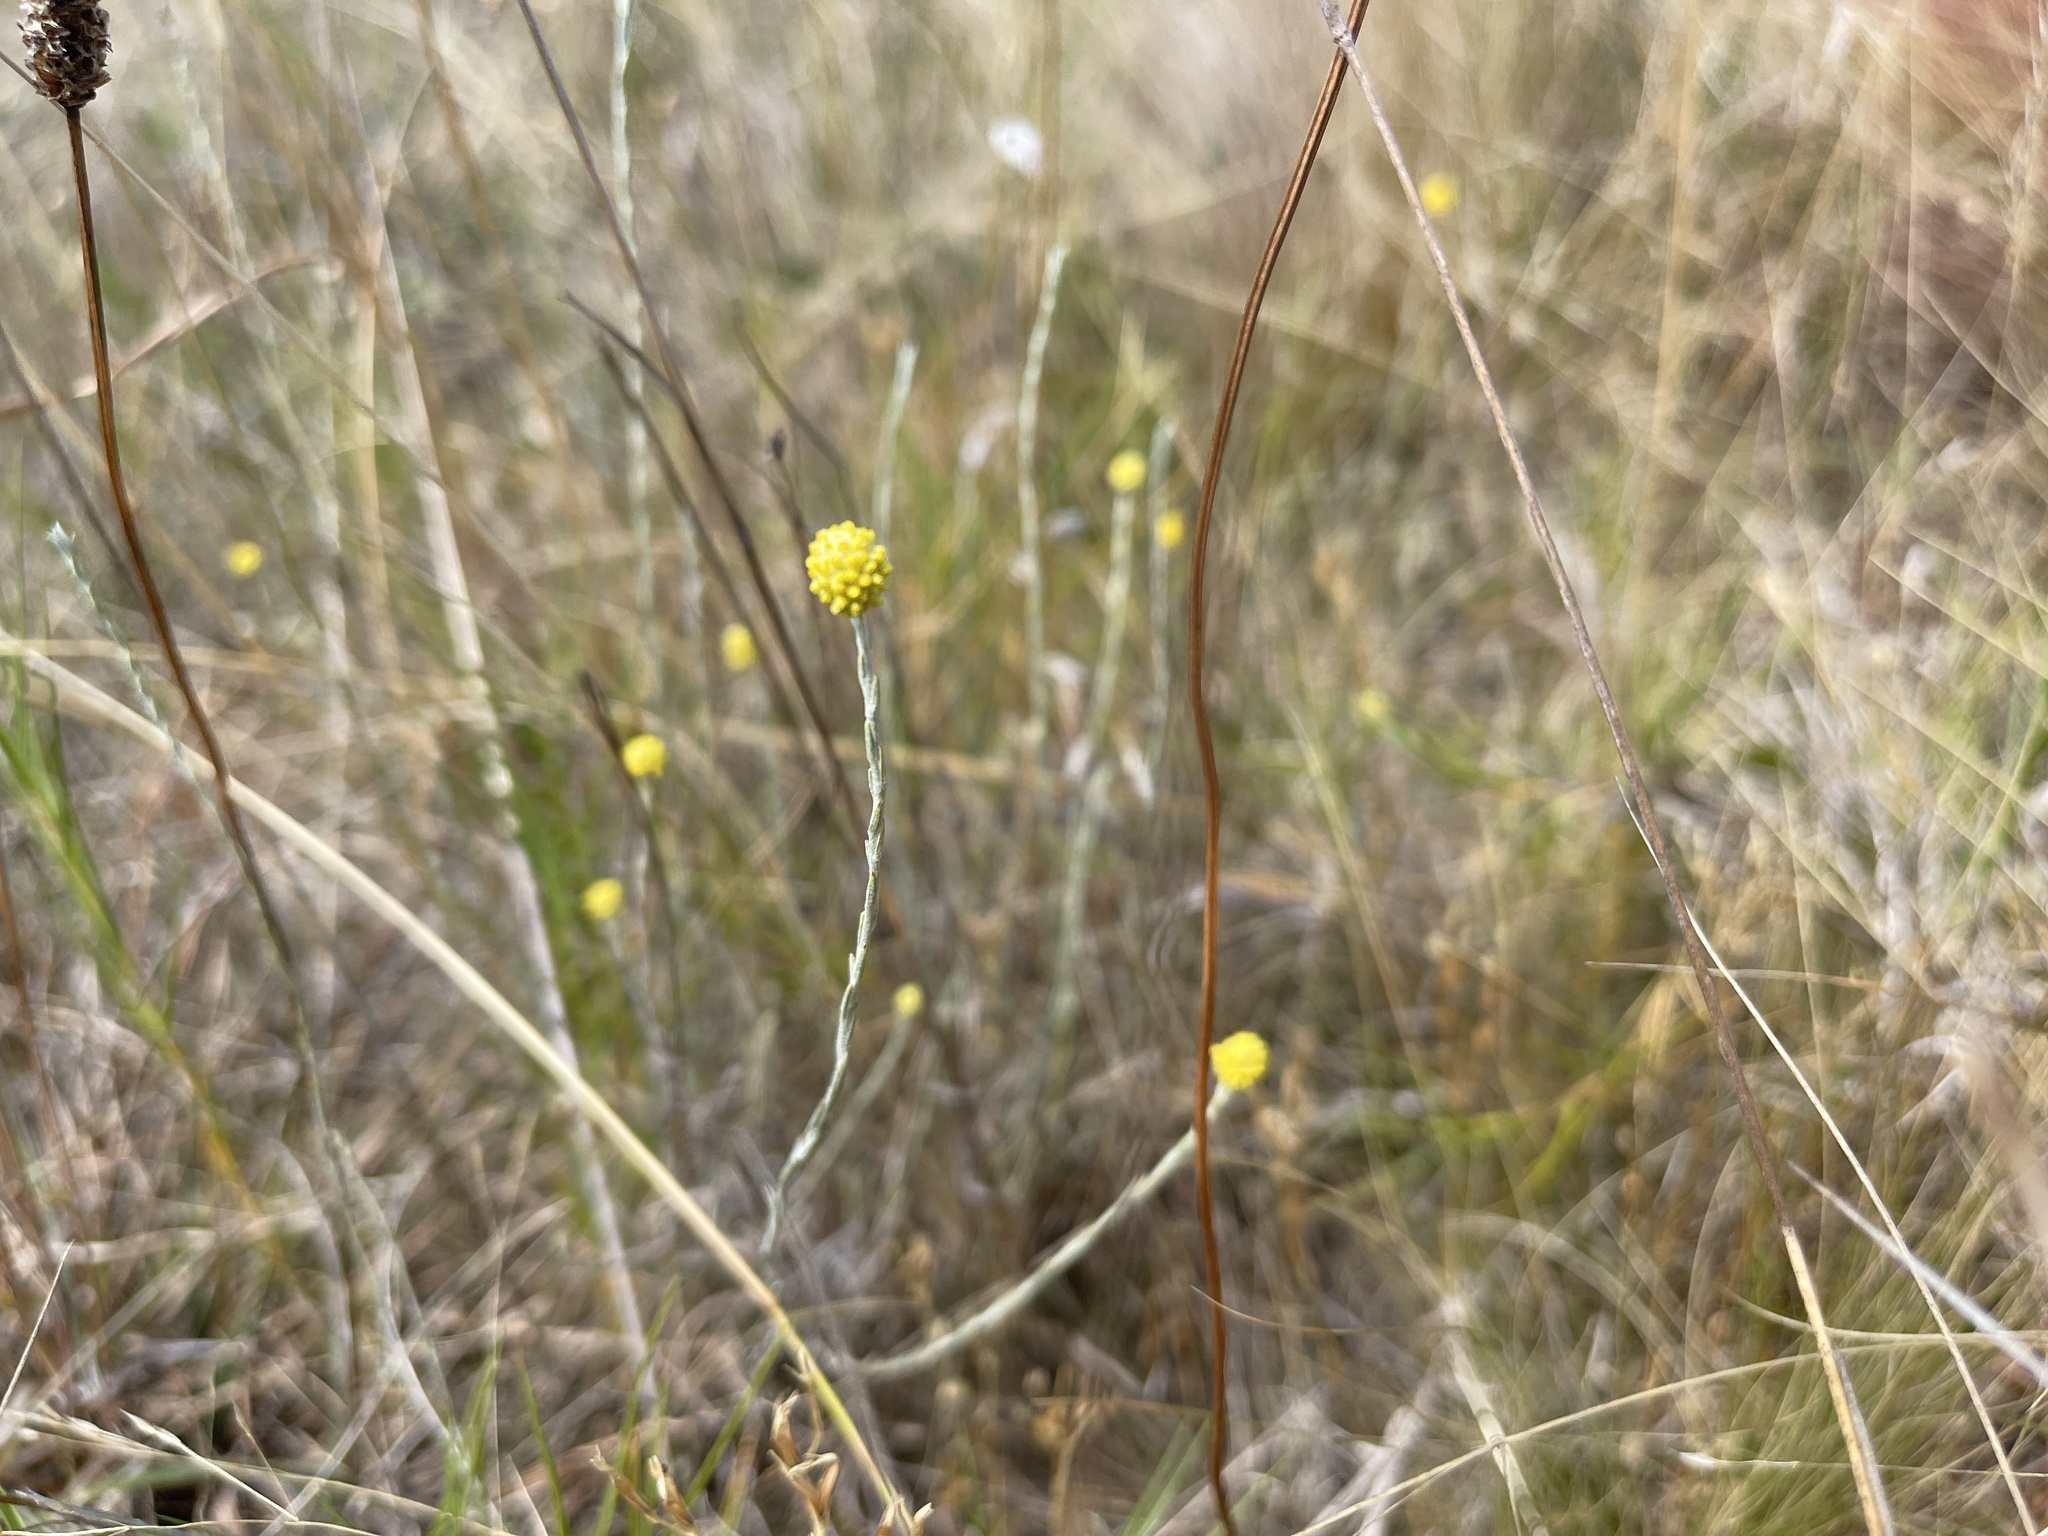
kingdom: Plantae
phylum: Tracheophyta
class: Magnoliopsida
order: Asterales
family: Asteraceae
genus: Calocephalus
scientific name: Calocephalus citreus
